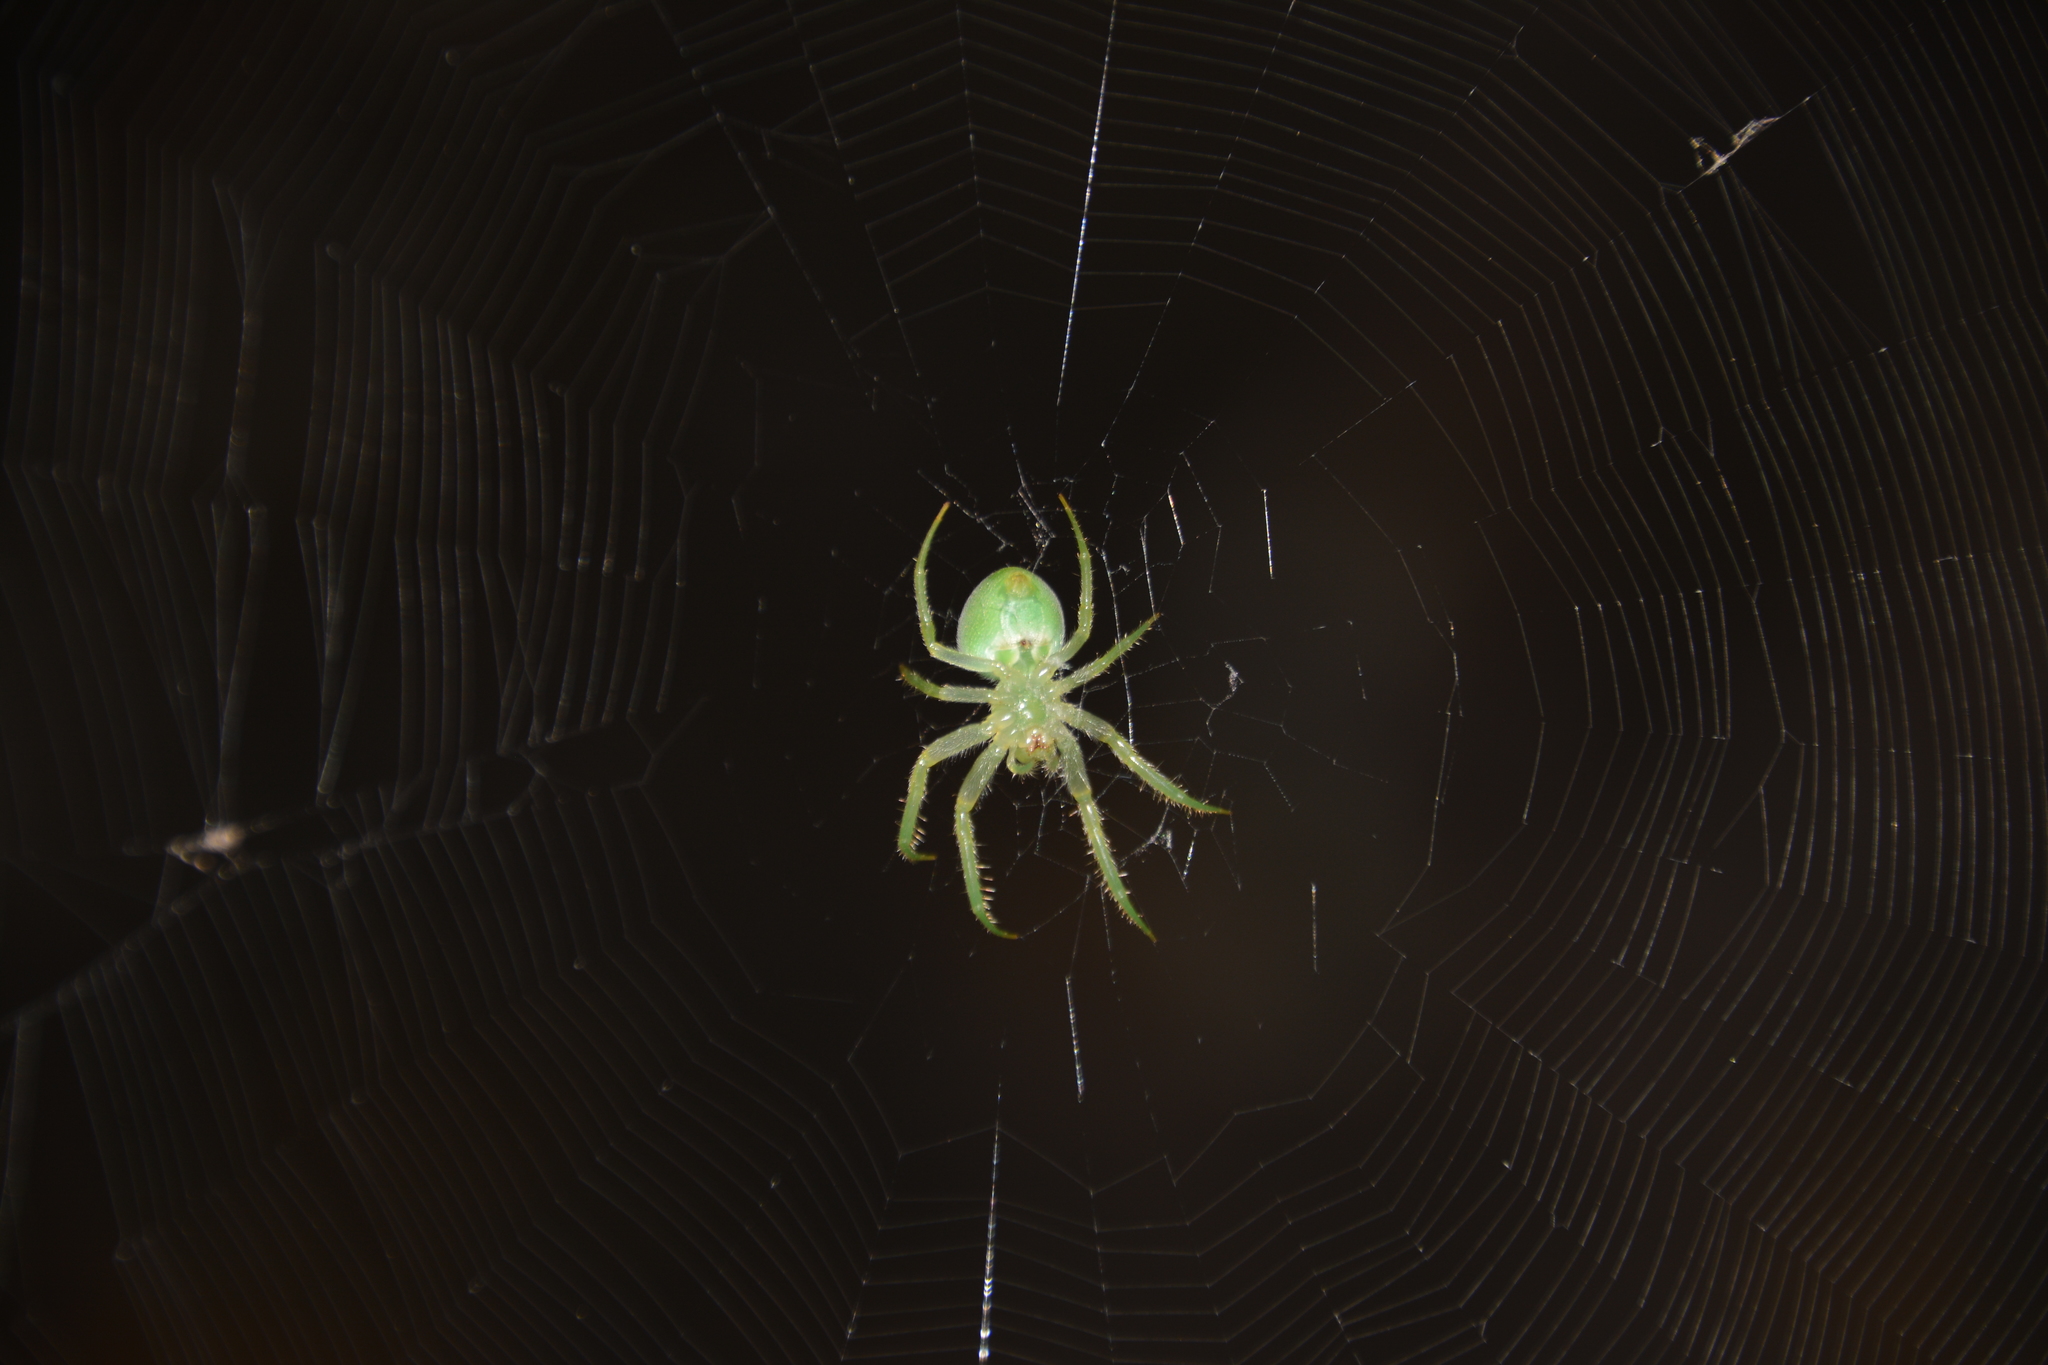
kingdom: Animalia
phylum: Arthropoda
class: Arachnida
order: Araneae
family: Araneidae
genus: Araneus
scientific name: Araneus uniformis
